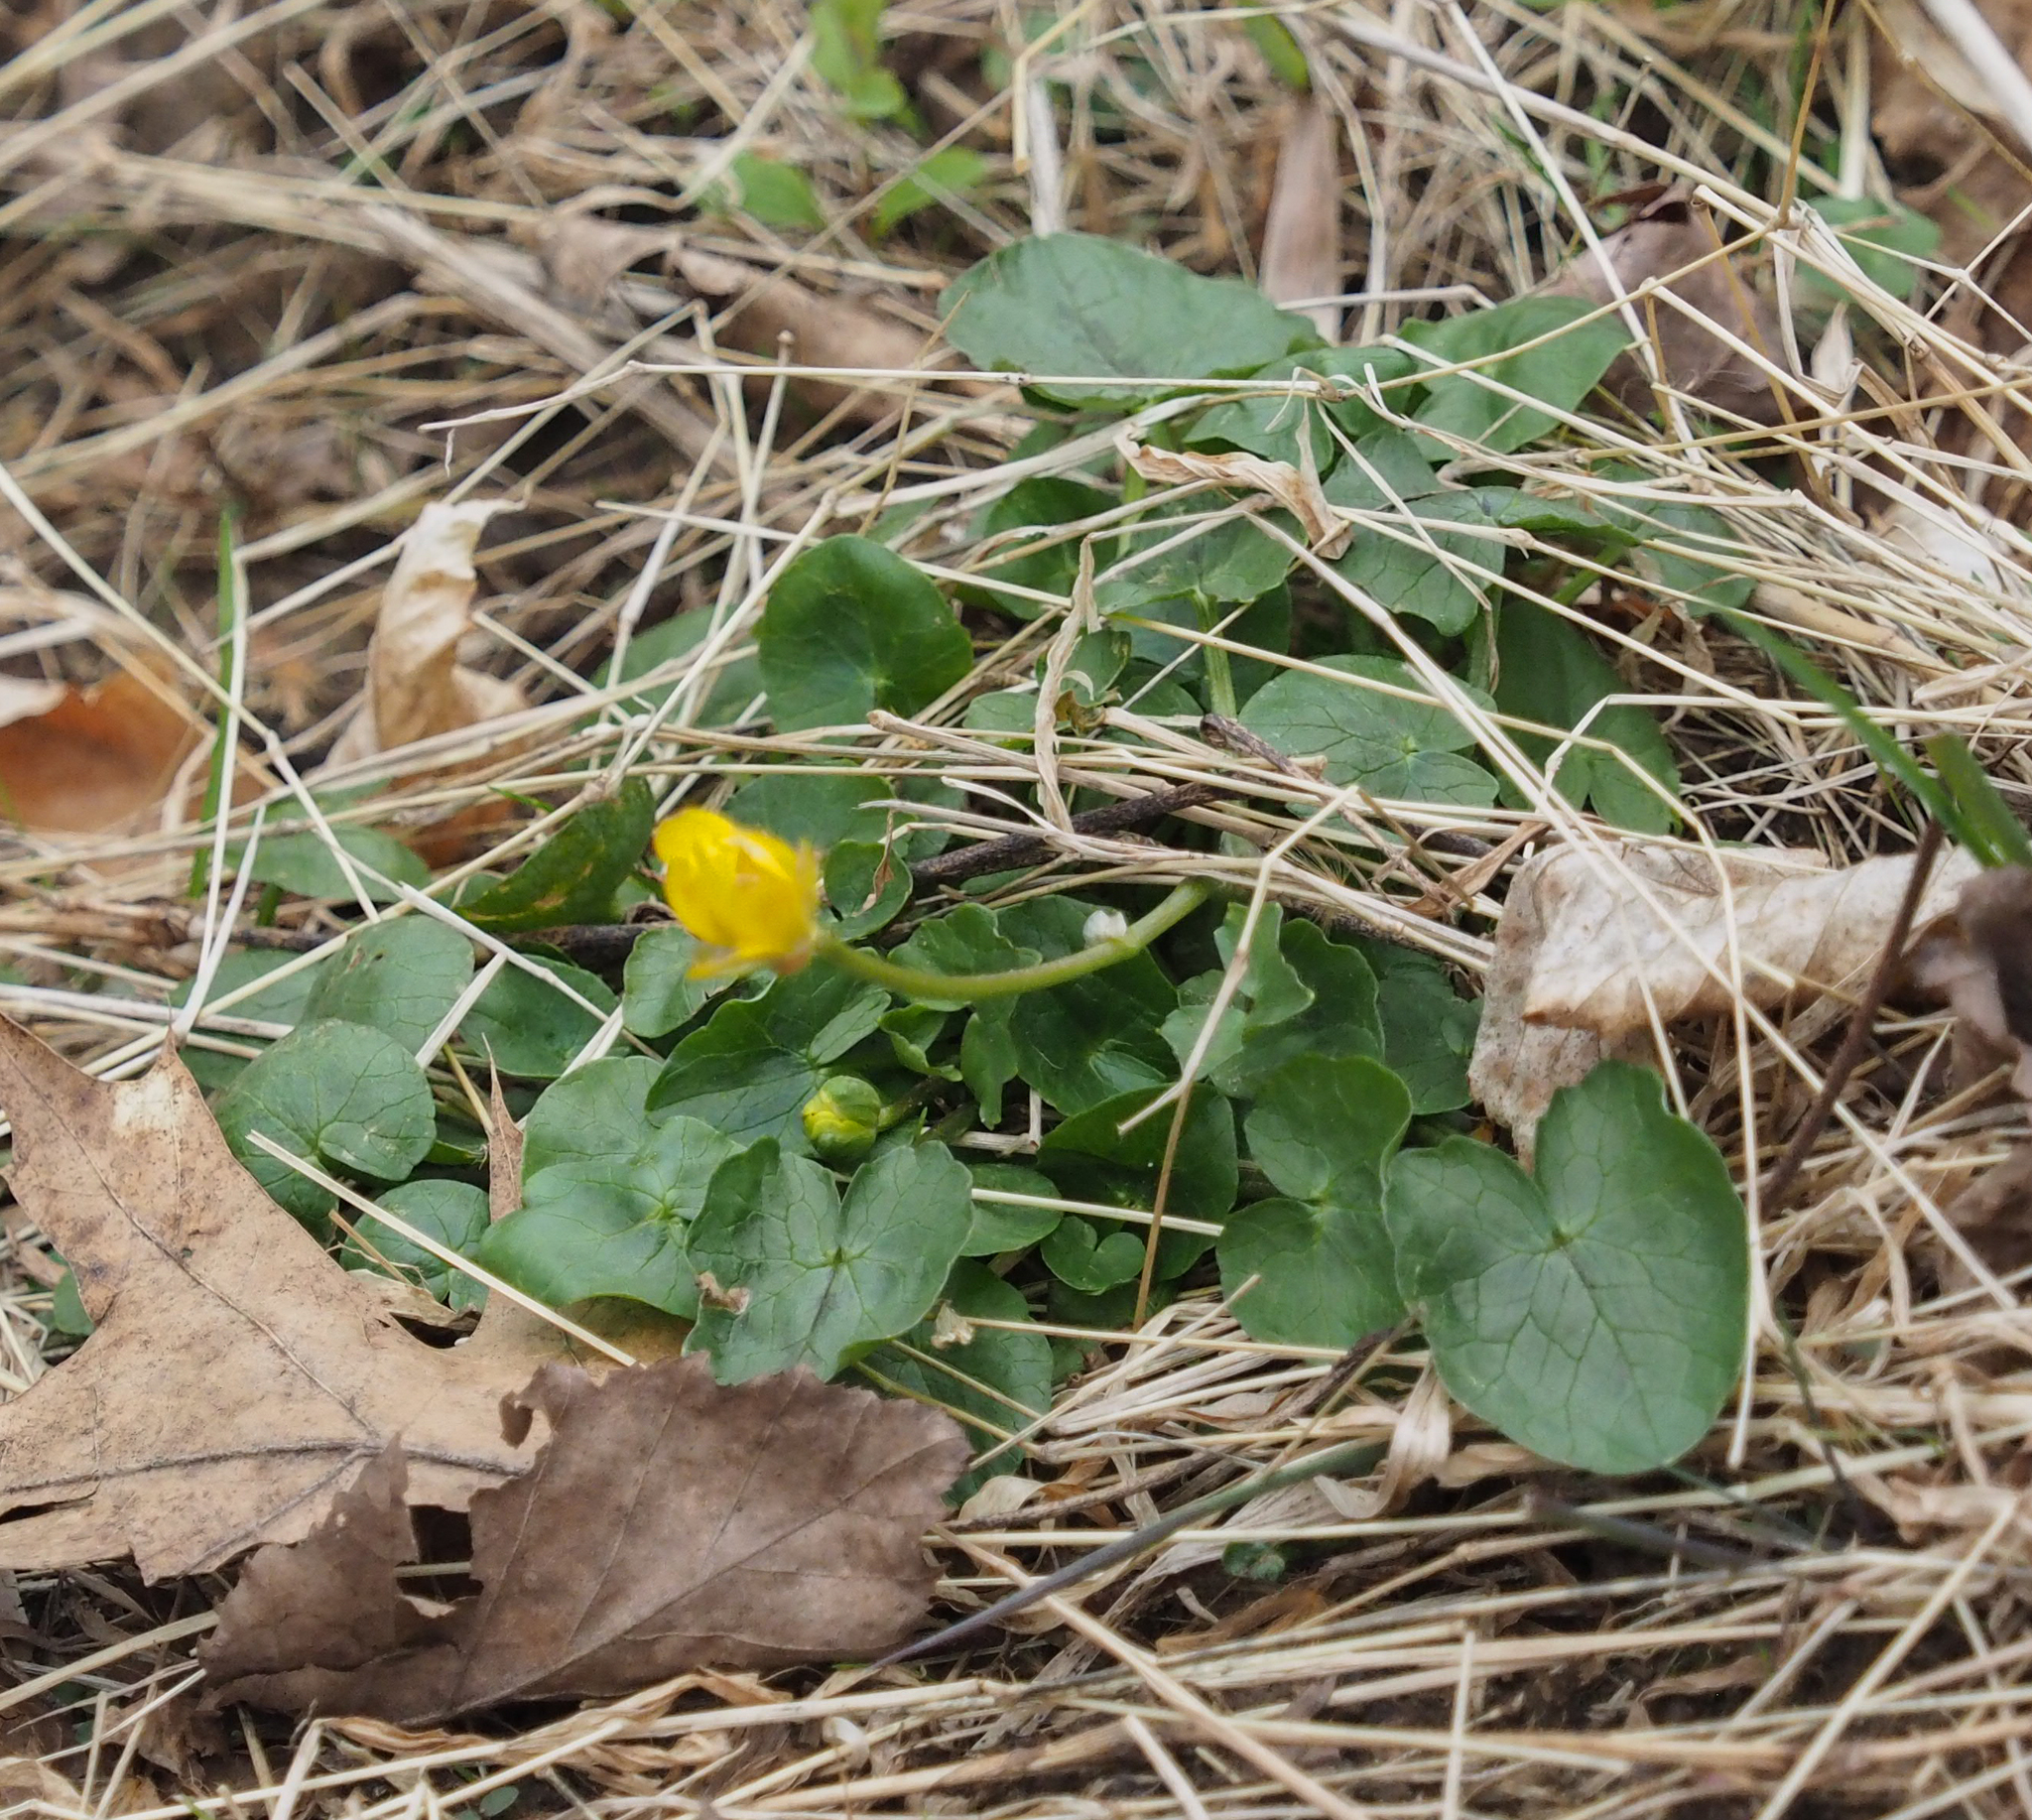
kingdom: Plantae
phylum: Tracheophyta
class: Magnoliopsida
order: Ranunculales
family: Ranunculaceae
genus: Ficaria
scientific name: Ficaria verna
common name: Lesser celandine
